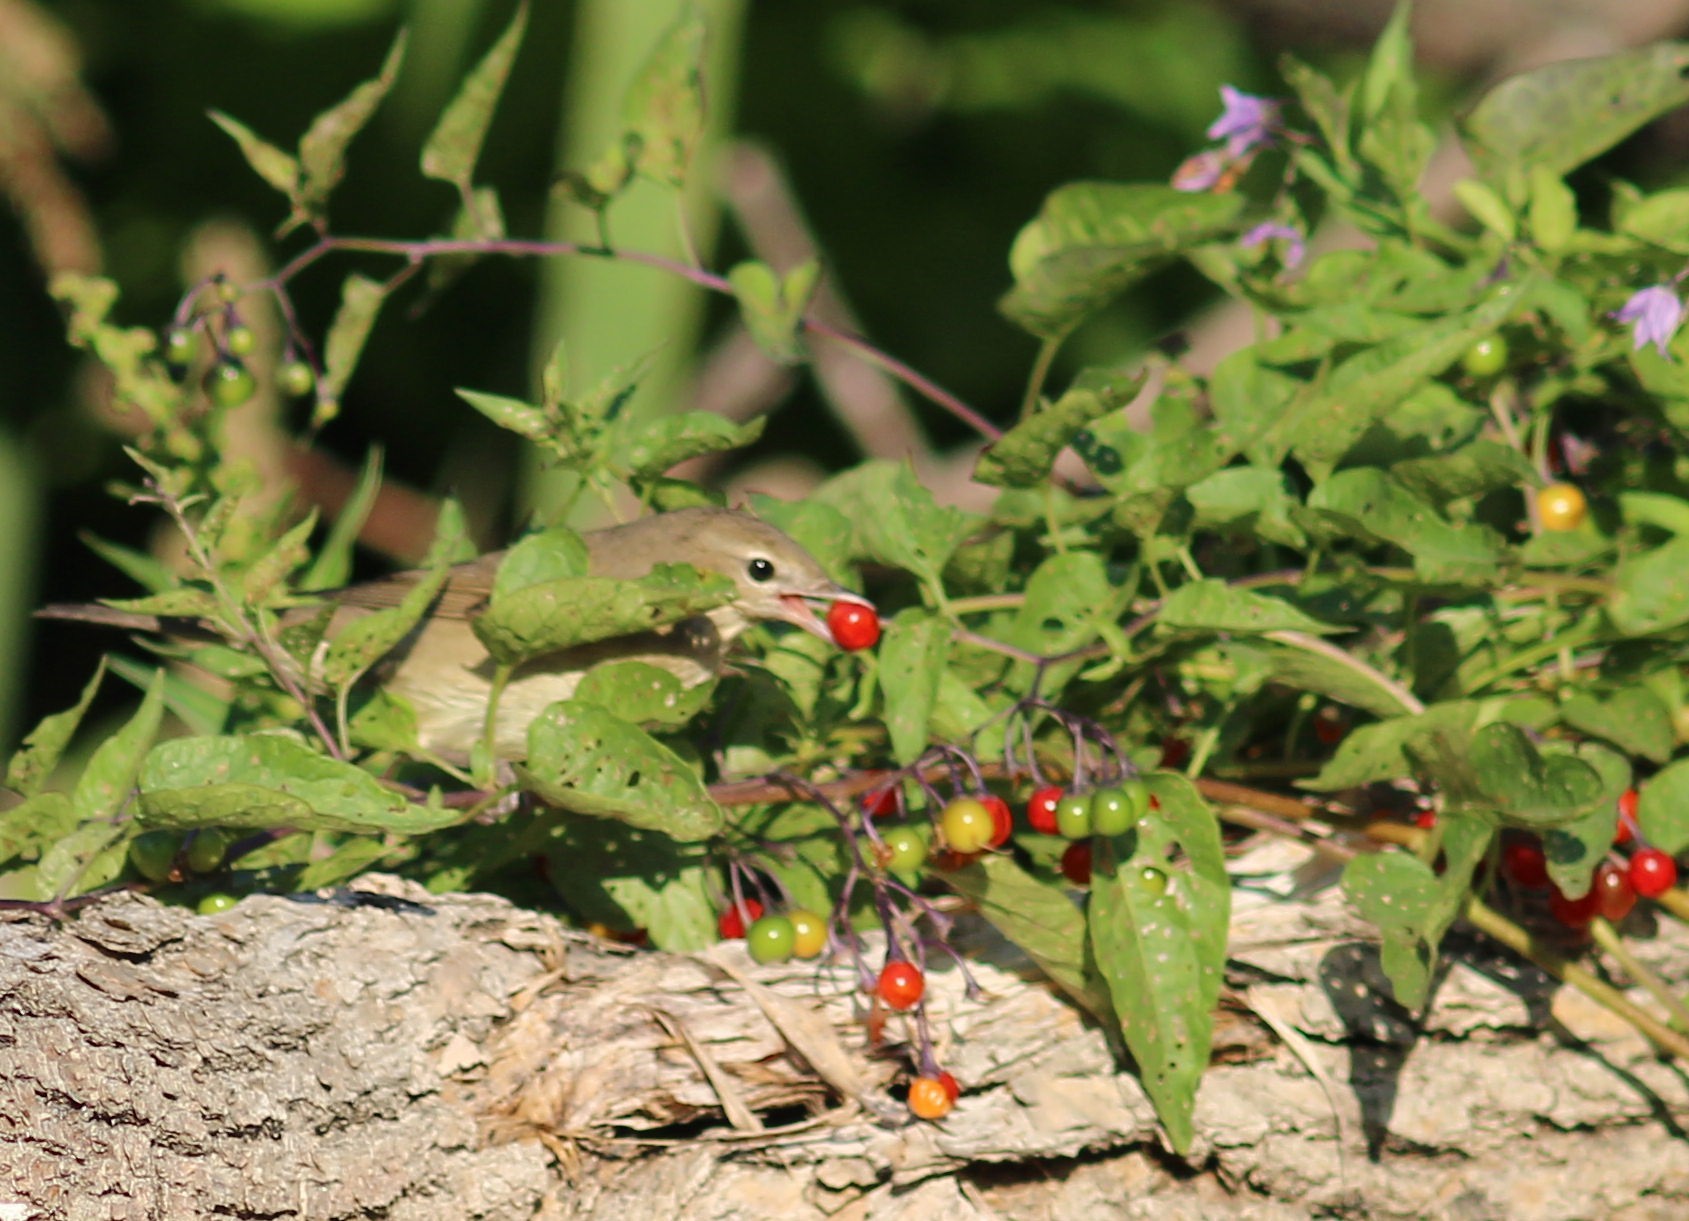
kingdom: Animalia
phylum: Chordata
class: Aves
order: Passeriformes
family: Sylviidae
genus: Sylvia
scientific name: Sylvia borin
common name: Garden warbler
